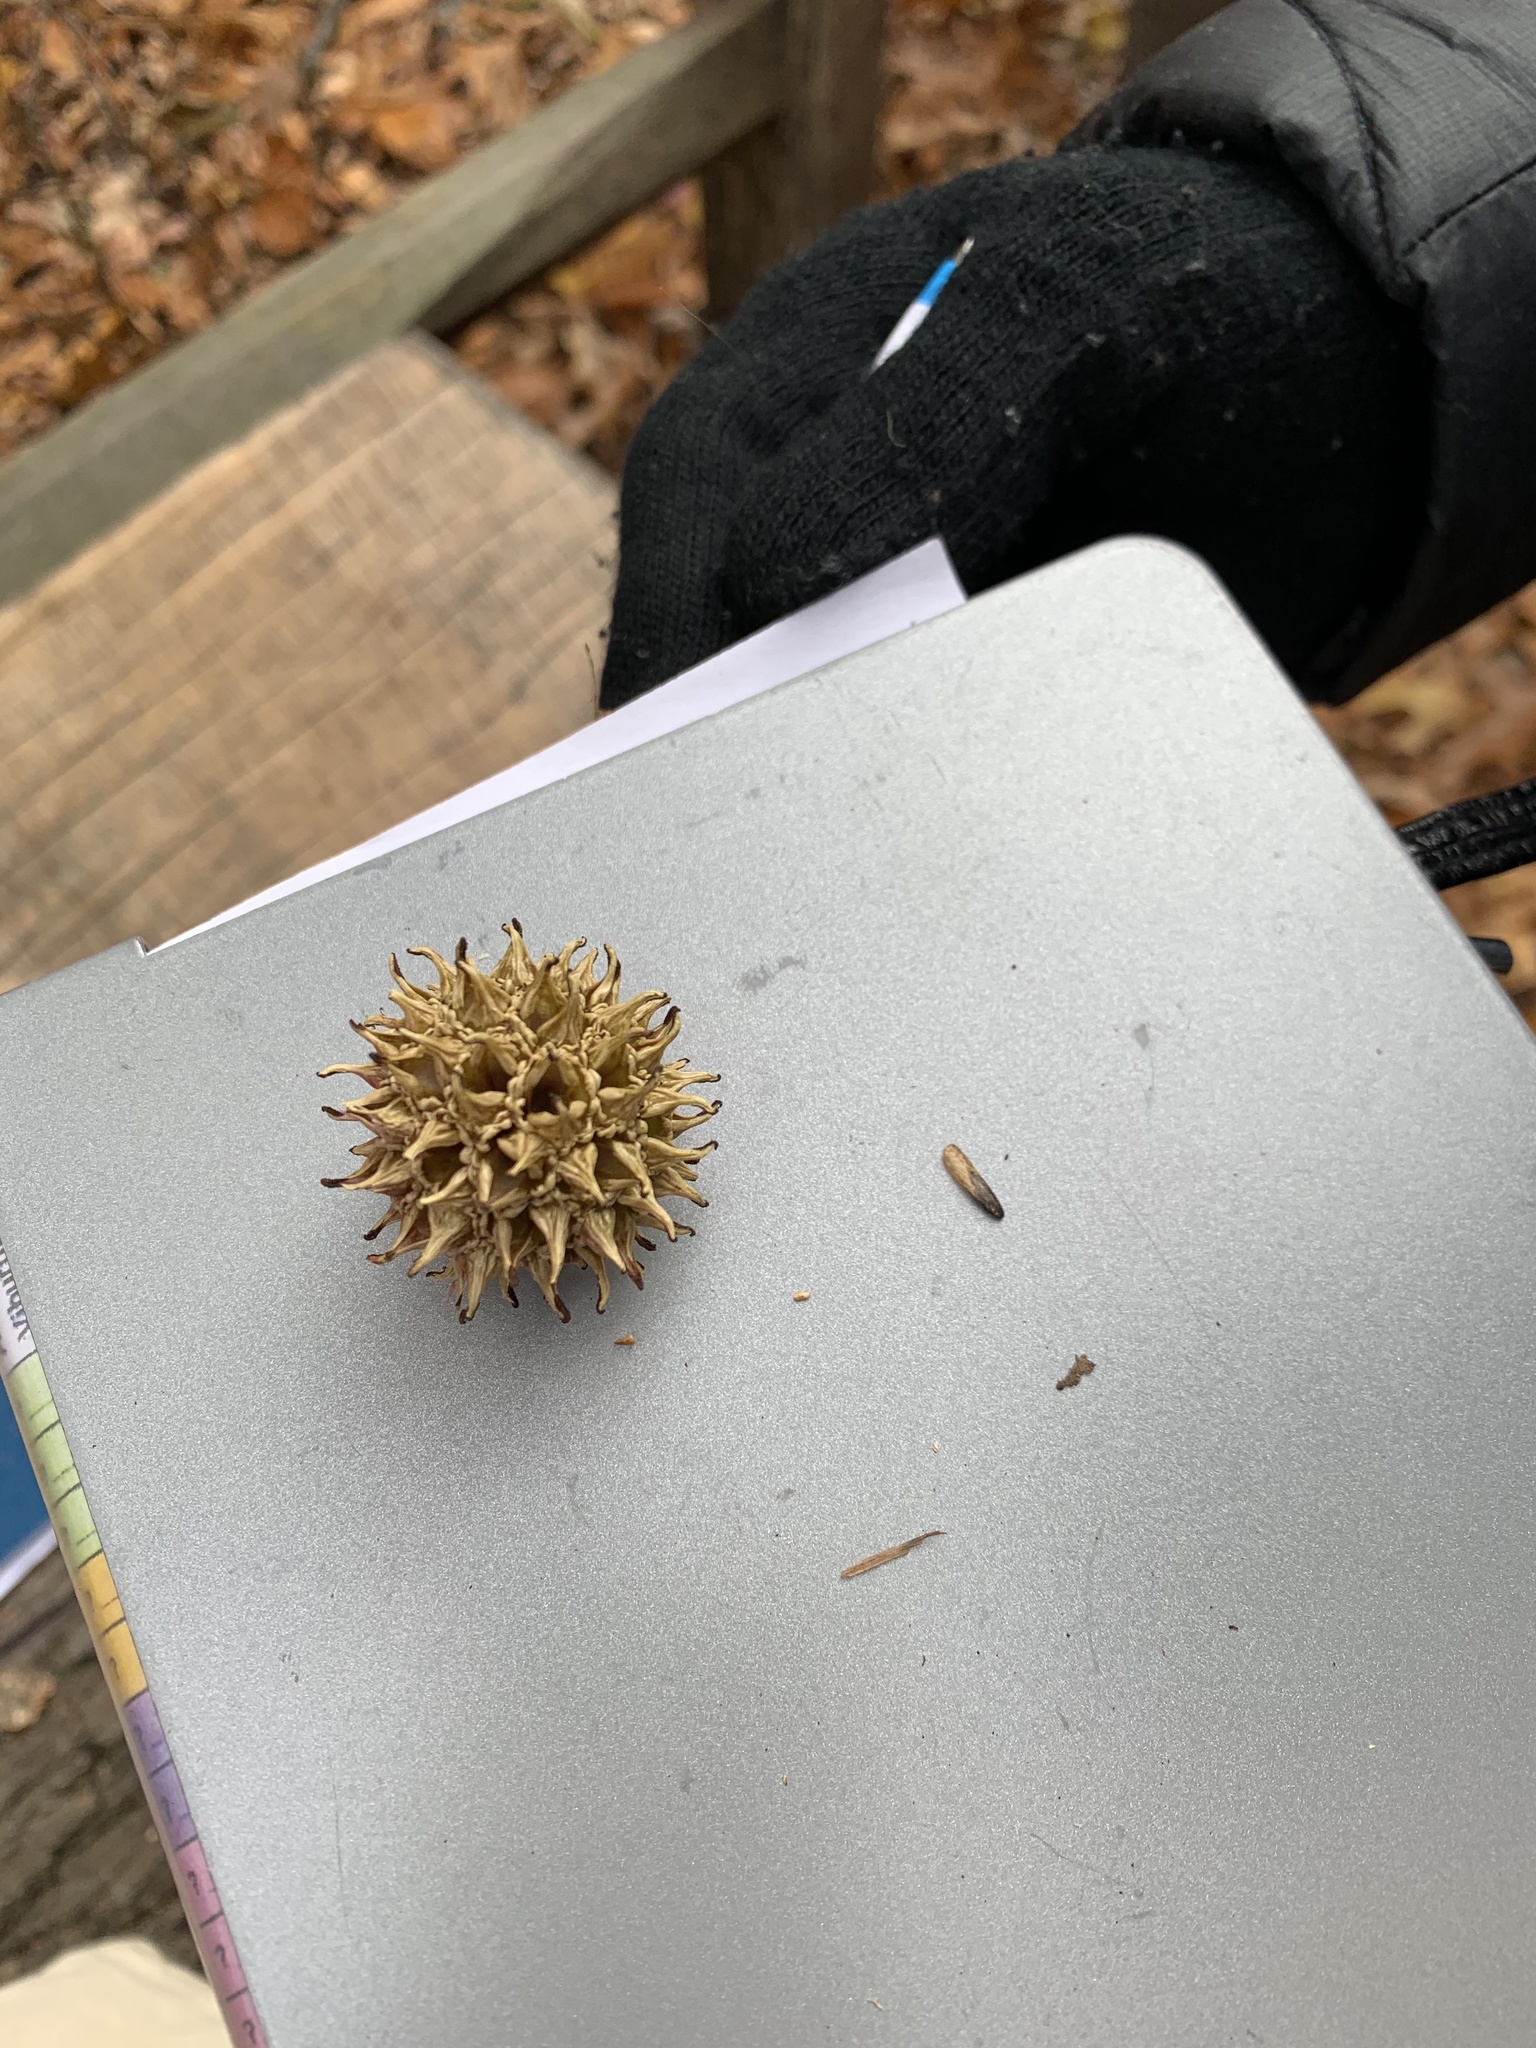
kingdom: Plantae
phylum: Tracheophyta
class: Magnoliopsida
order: Saxifragales
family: Altingiaceae
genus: Liquidambar
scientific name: Liquidambar styraciflua
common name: Sweet gum
